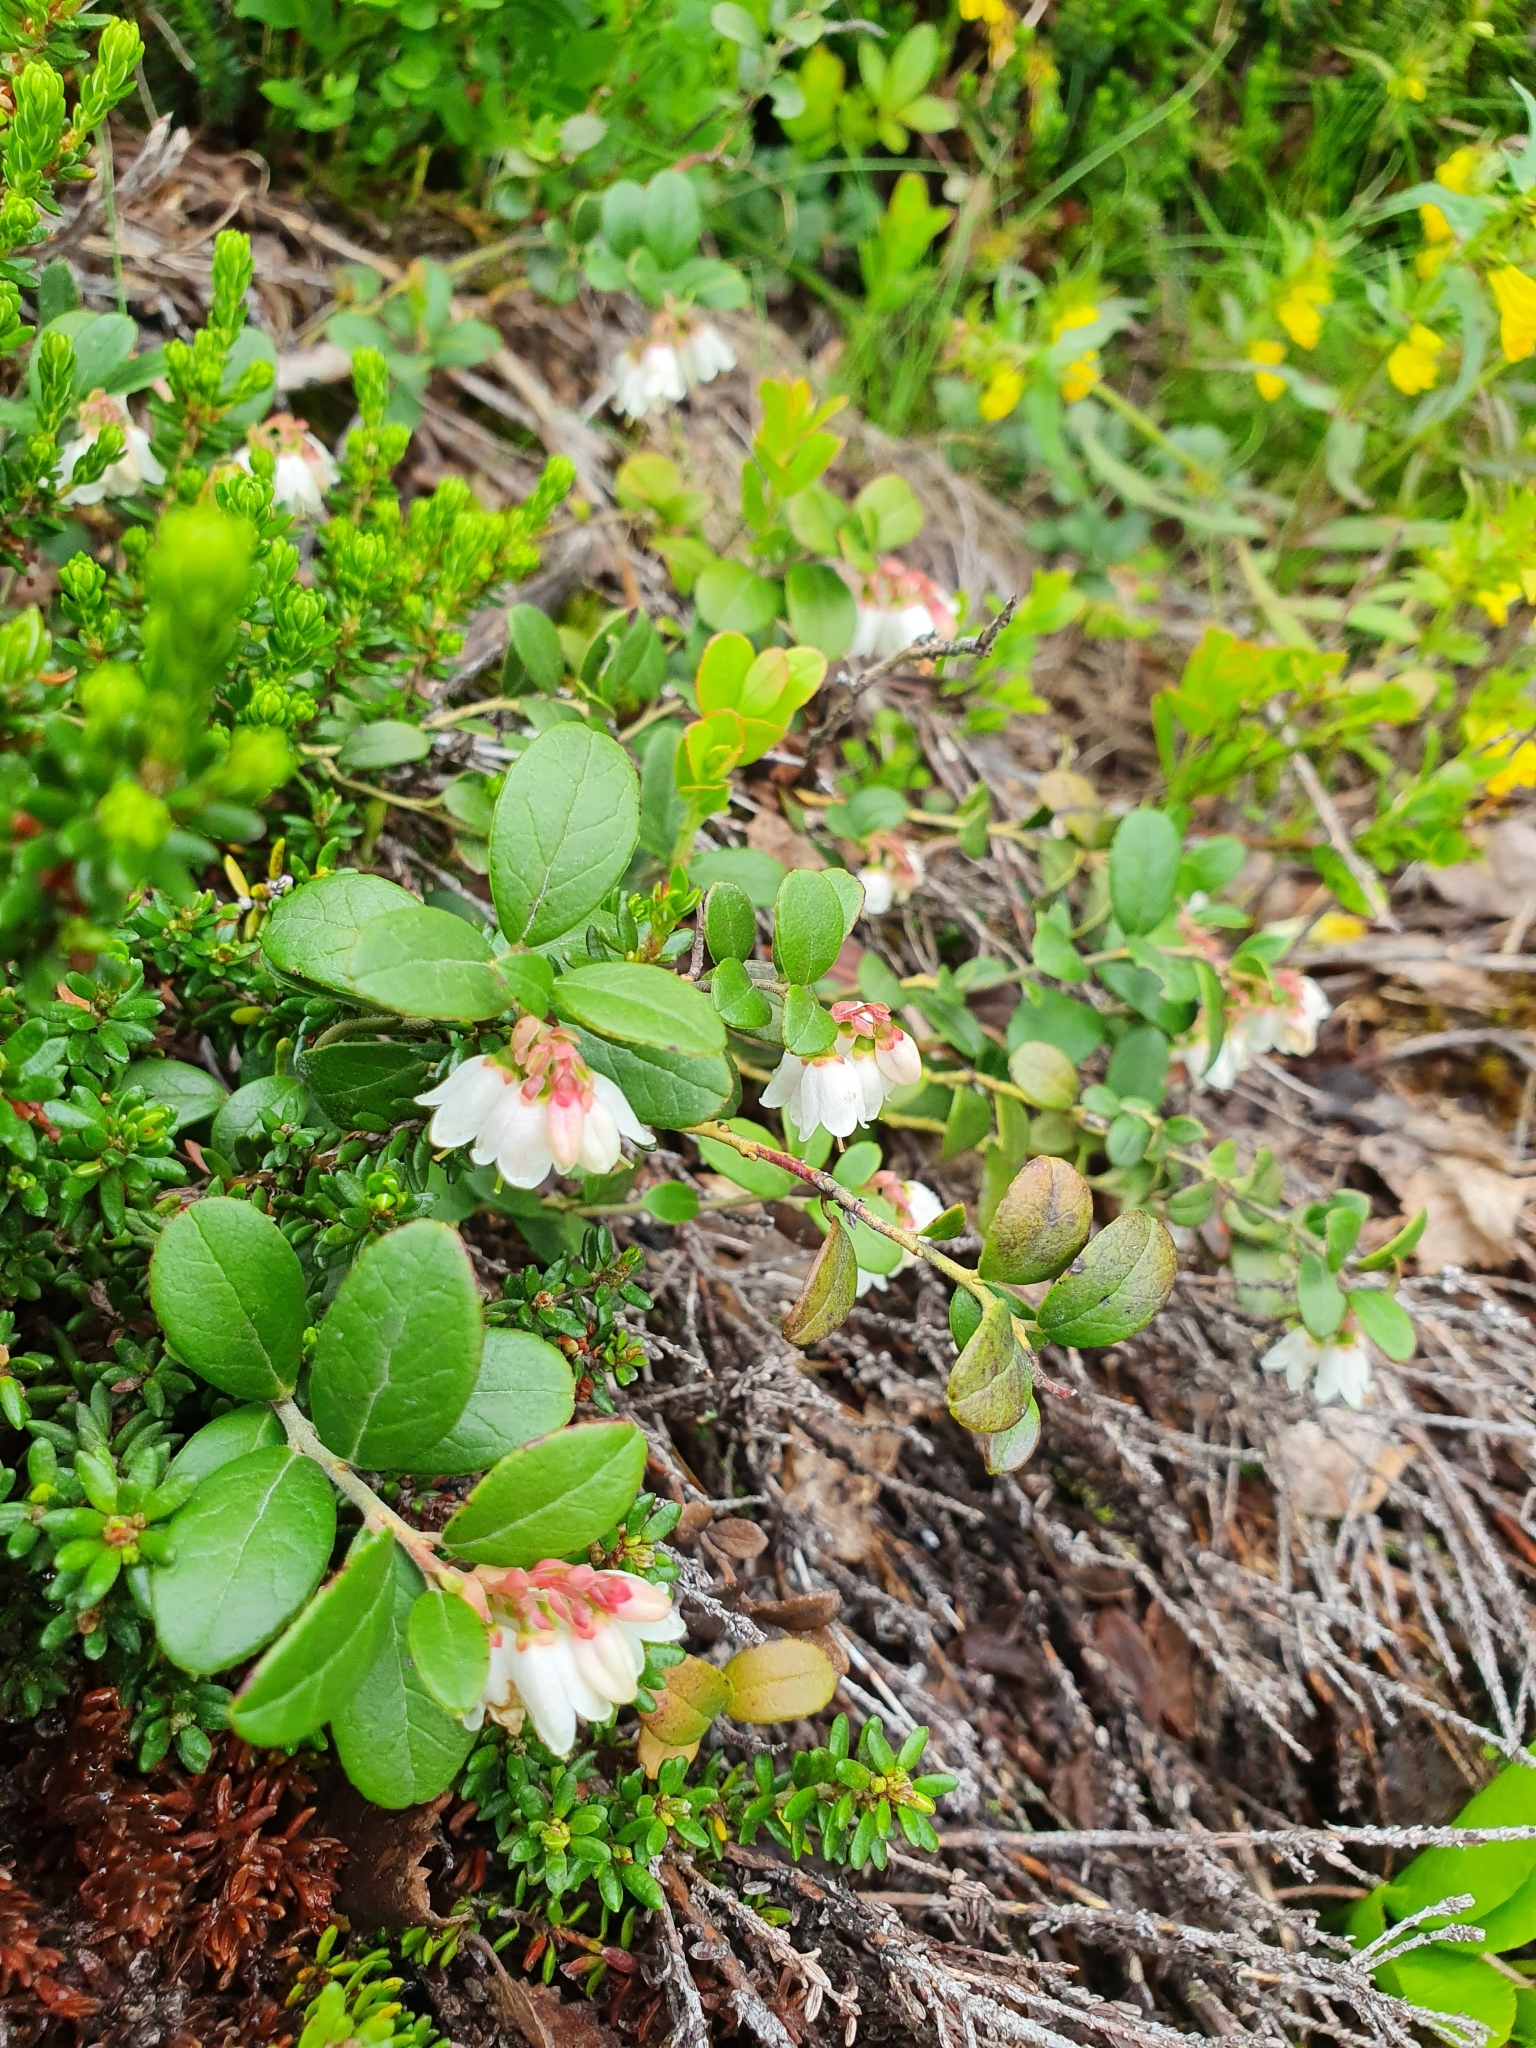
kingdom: Plantae
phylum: Tracheophyta
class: Magnoliopsida
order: Ericales
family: Ericaceae
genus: Vaccinium
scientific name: Vaccinium vitis-idaea
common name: Cowberry
